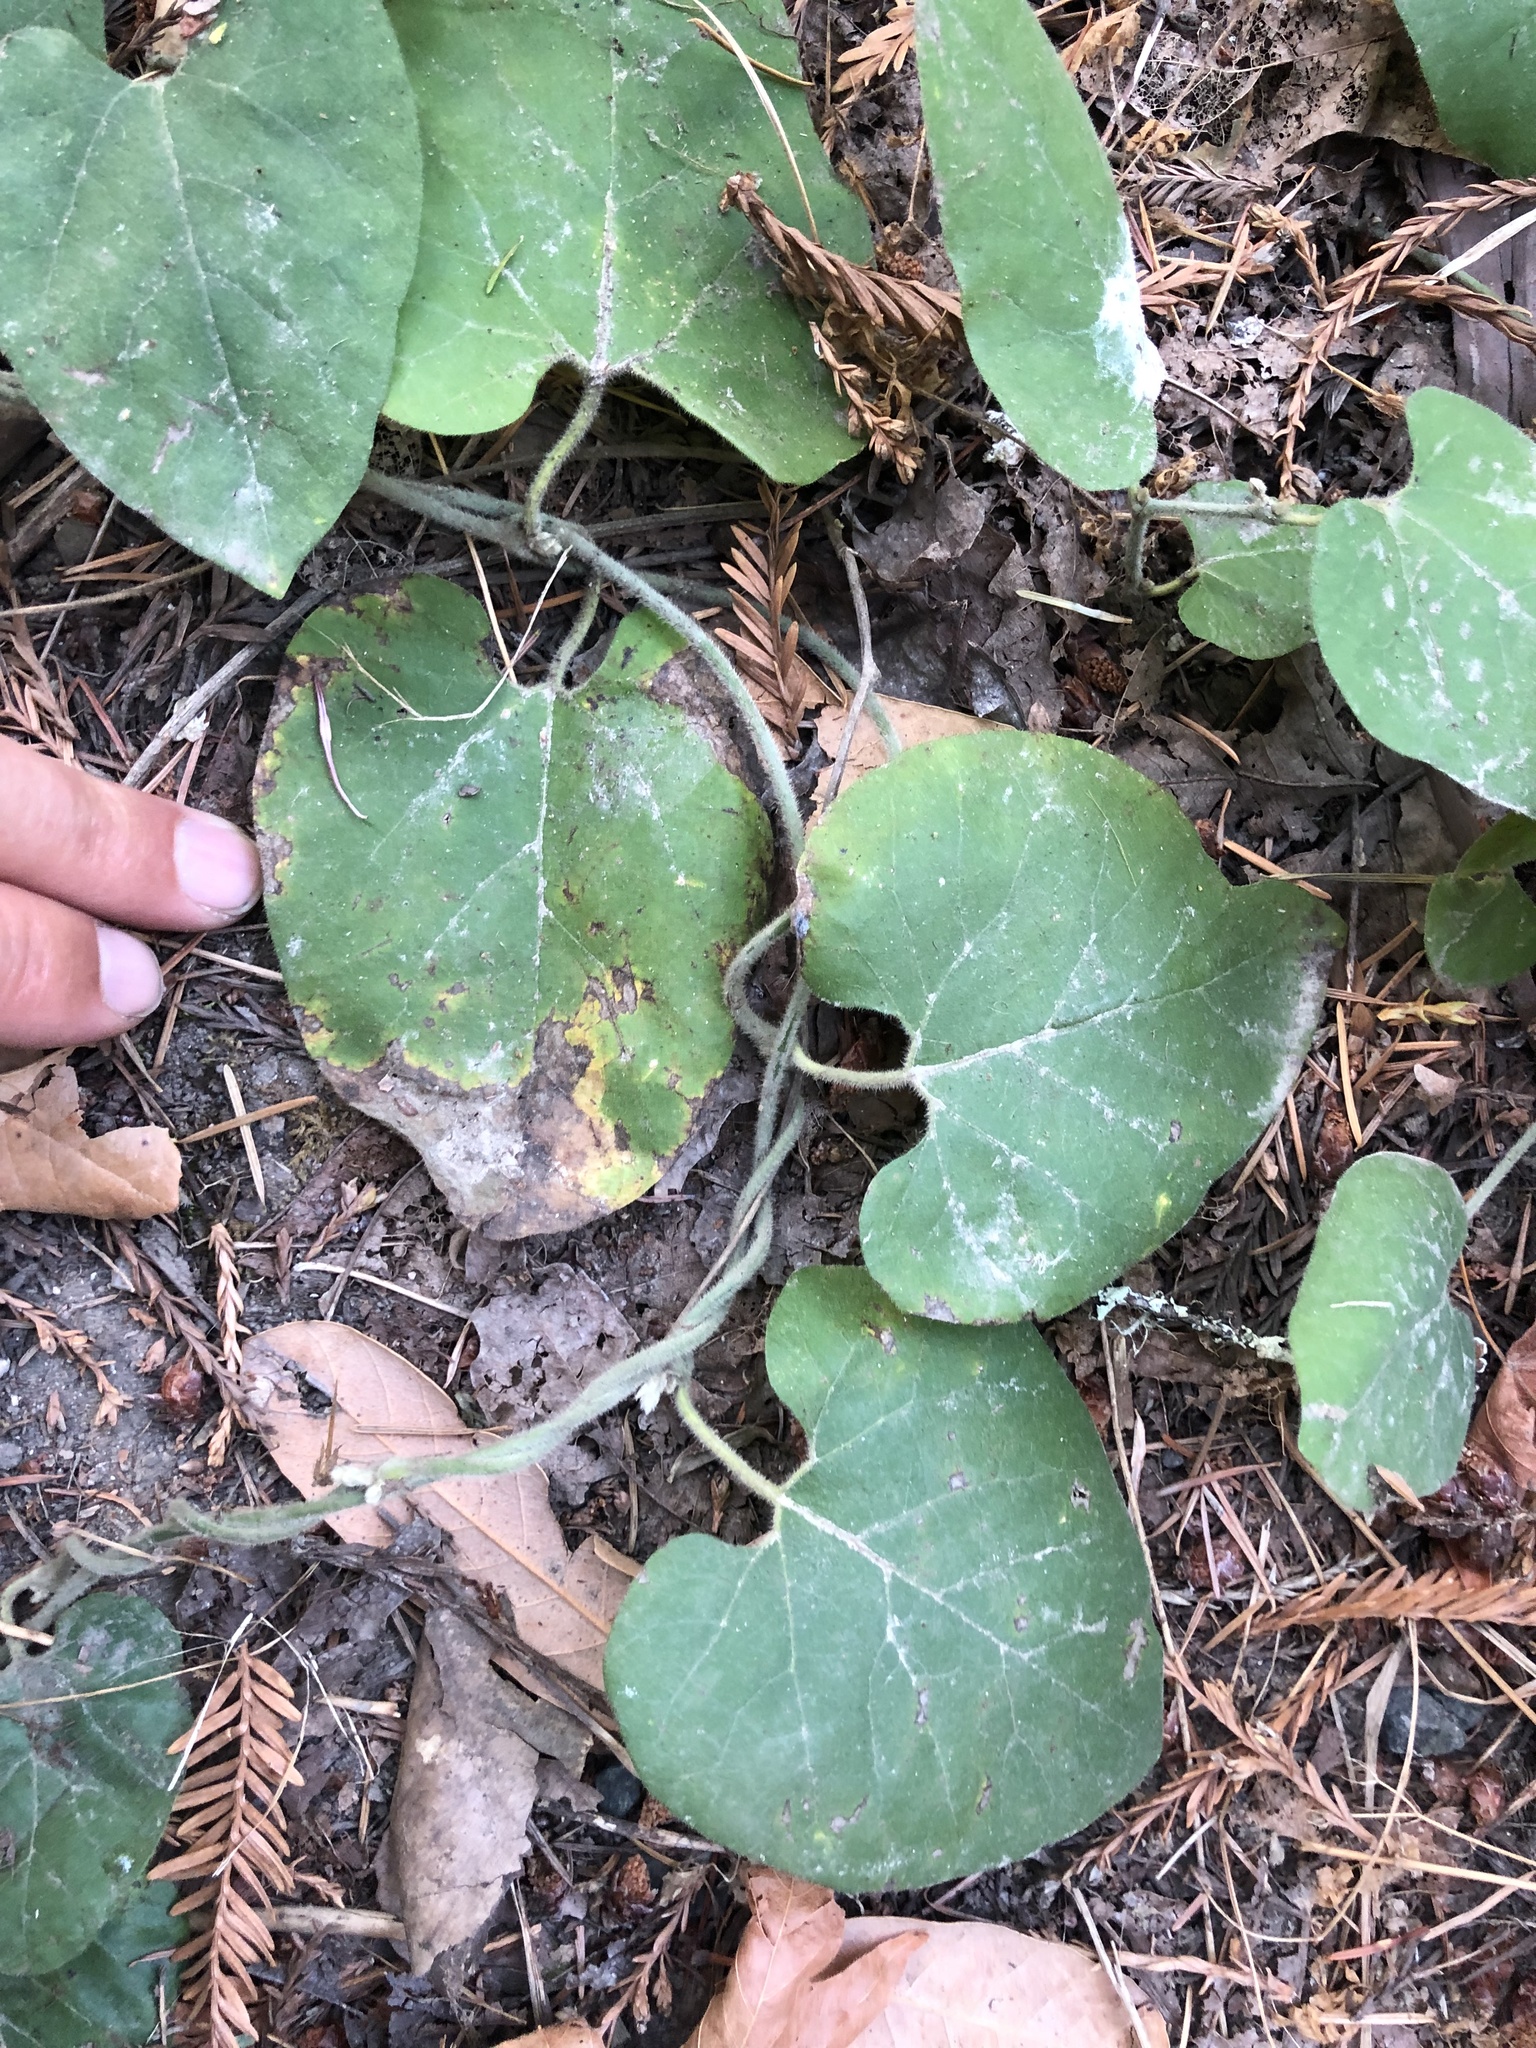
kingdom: Plantae
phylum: Tracheophyta
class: Magnoliopsida
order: Piperales
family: Aristolochiaceae
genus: Isotrema
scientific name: Isotrema californicum
